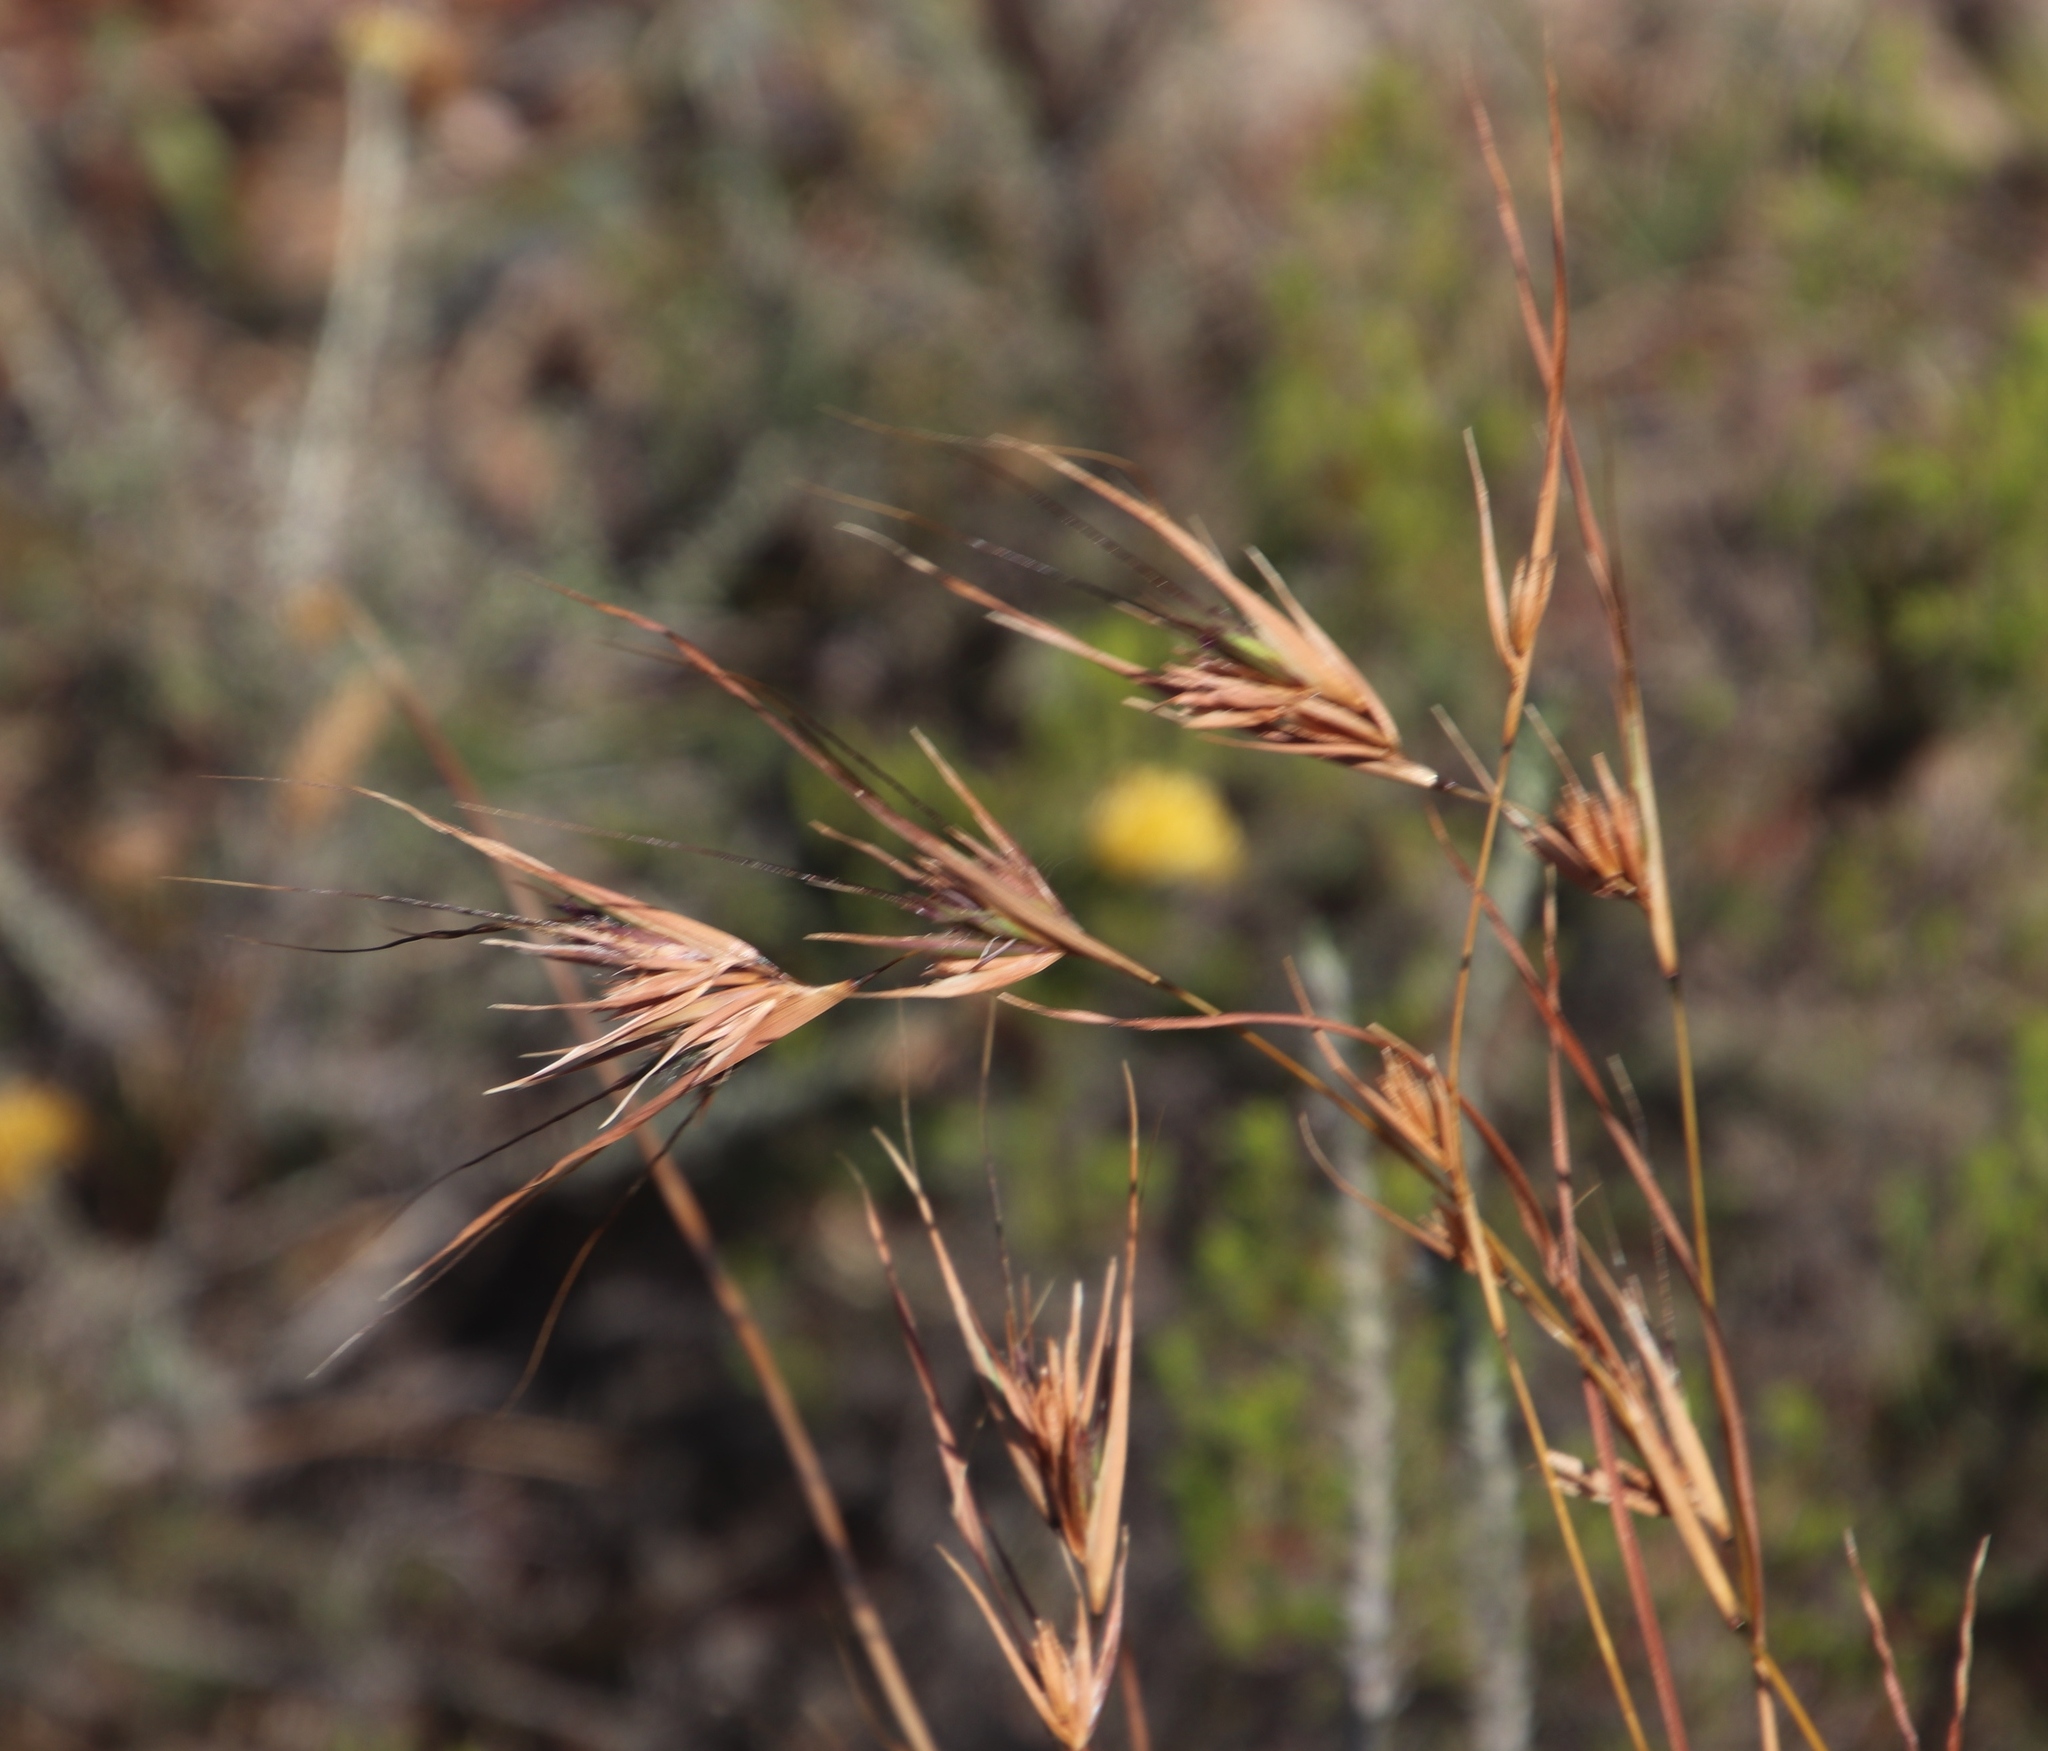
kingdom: Plantae
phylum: Tracheophyta
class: Liliopsida
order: Poales
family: Poaceae
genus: Themeda
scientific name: Themeda triandra
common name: Kangaroo grass
